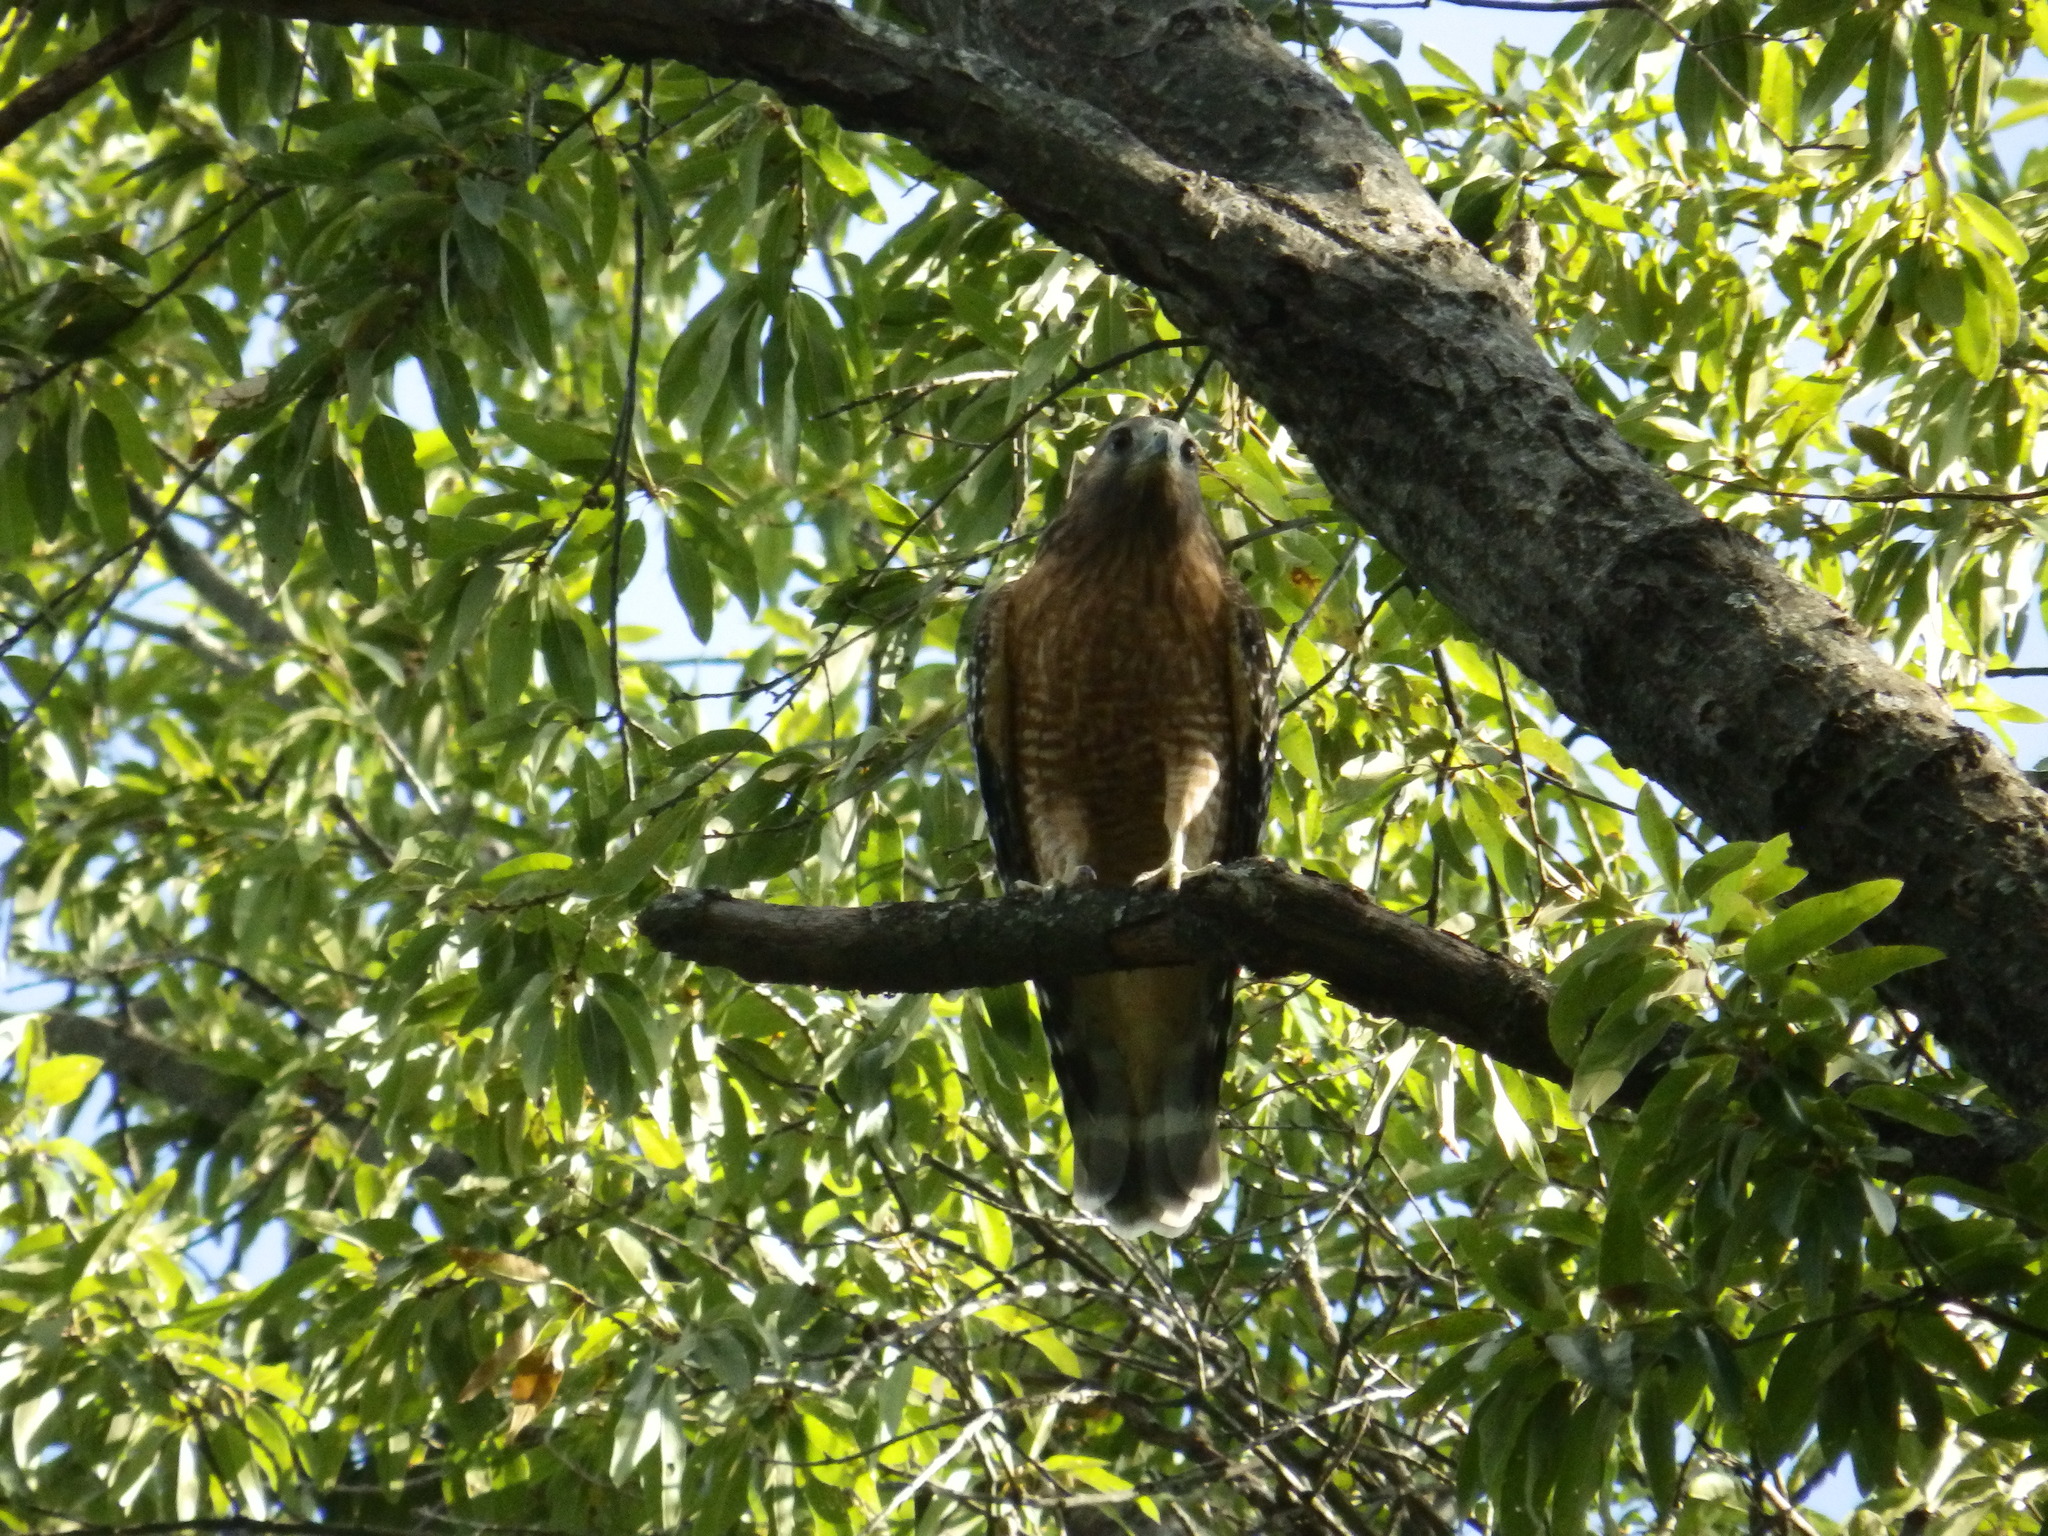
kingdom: Animalia
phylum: Chordata
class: Aves
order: Accipitriformes
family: Accipitridae
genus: Buteo
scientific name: Buteo lineatus
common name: Red-shouldered hawk
